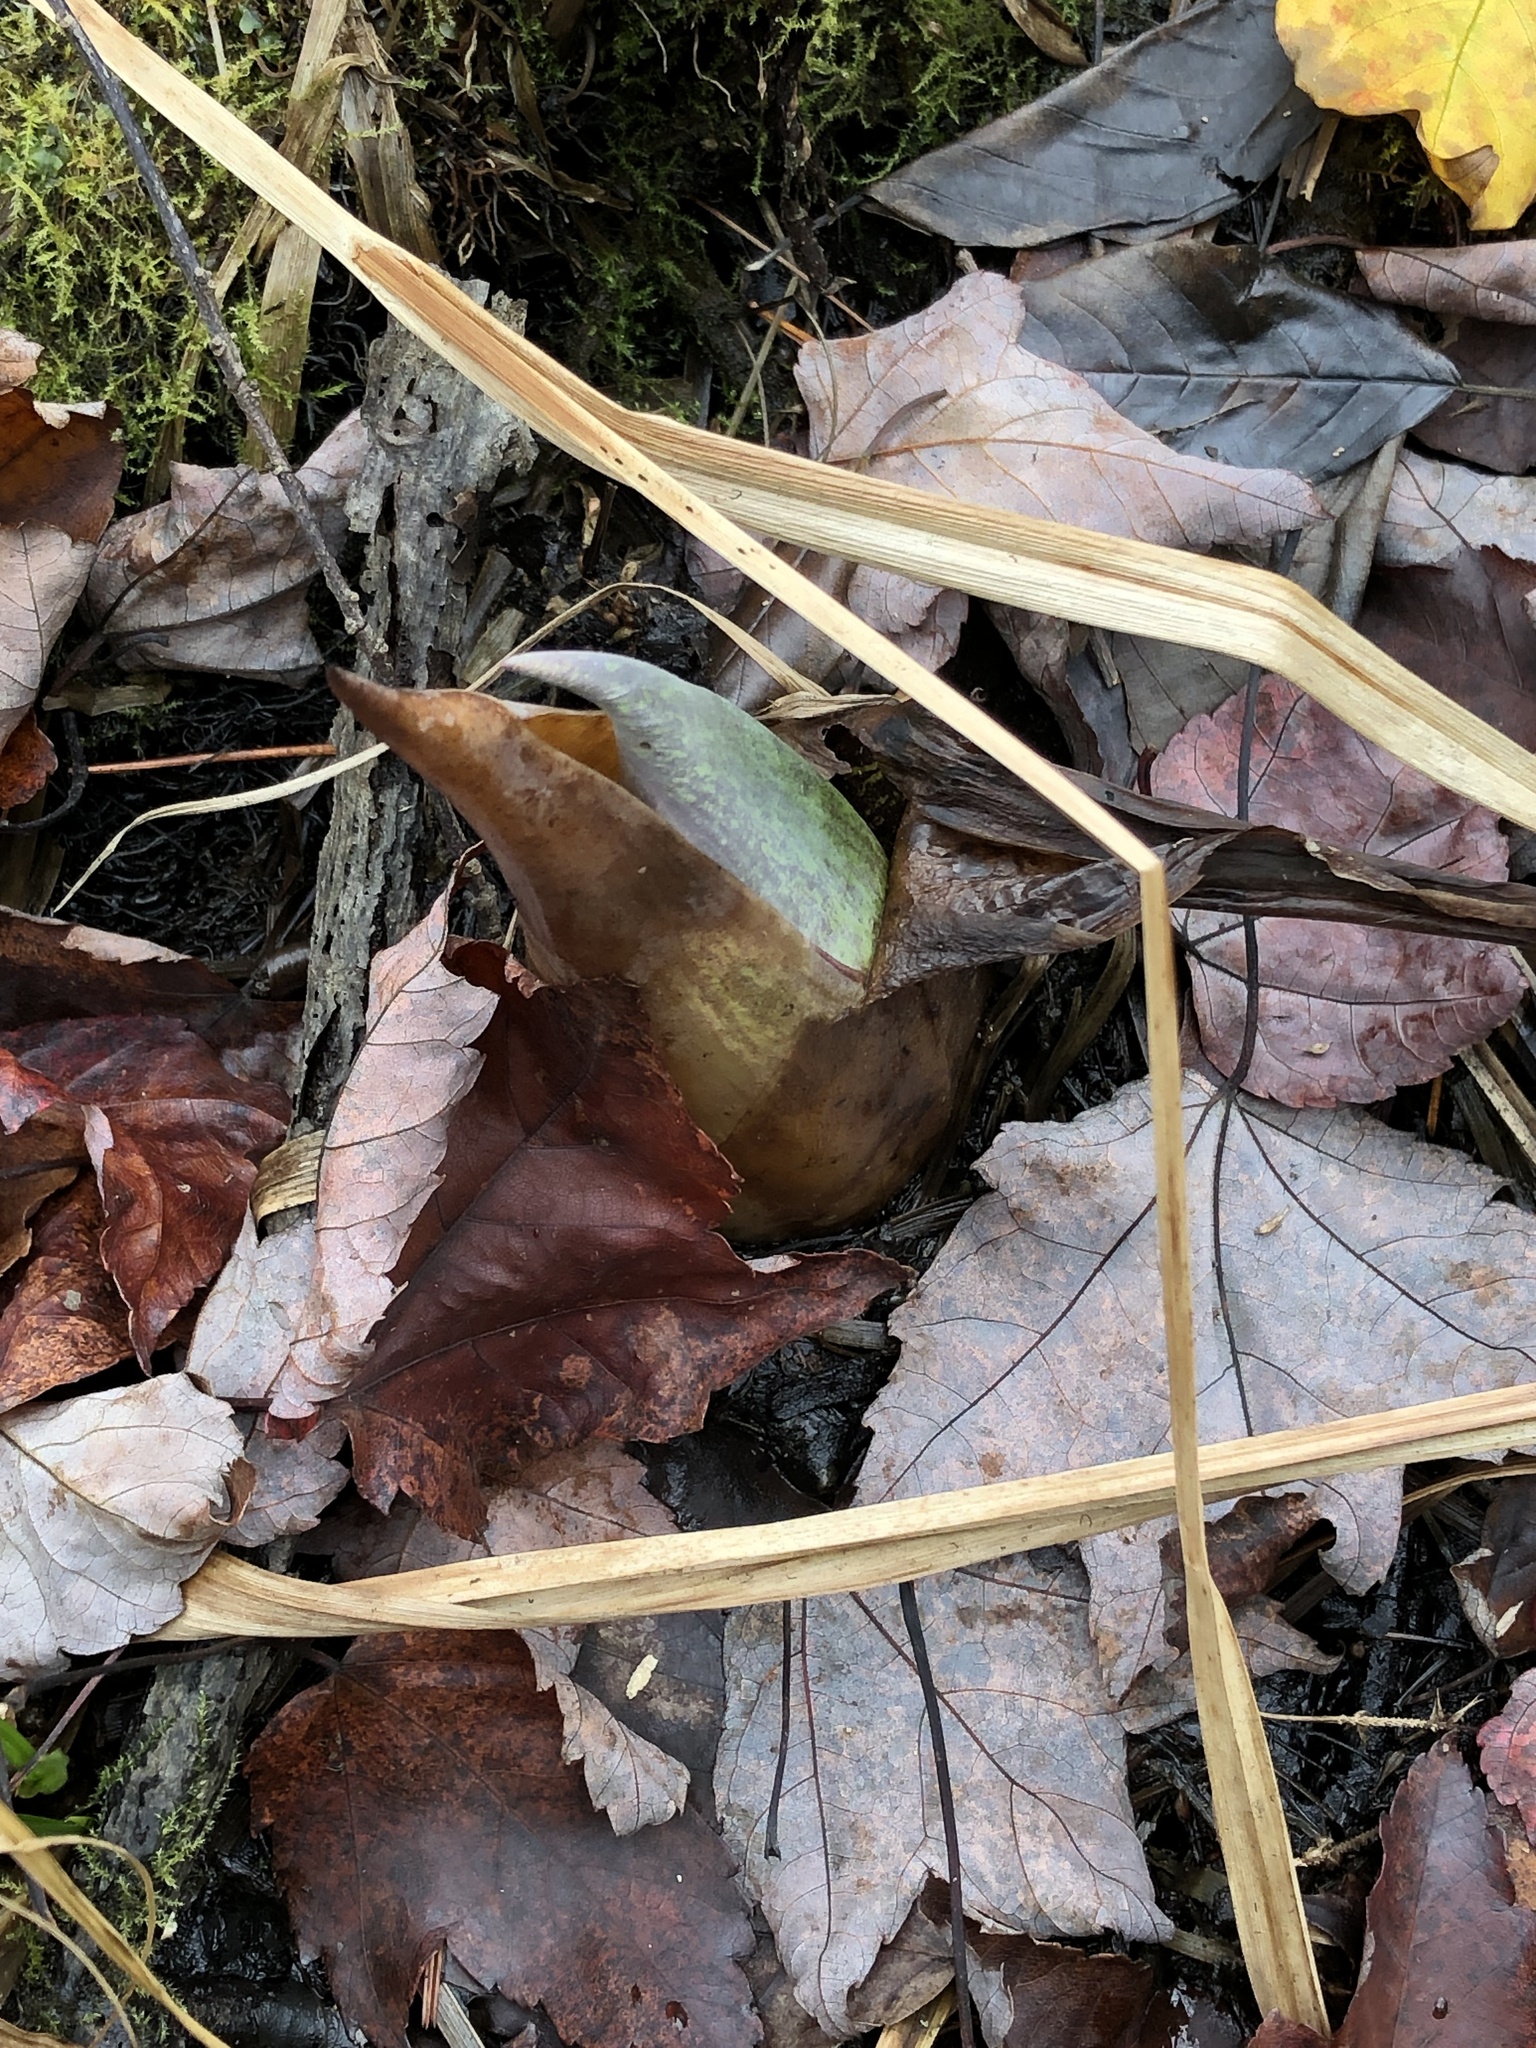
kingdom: Plantae
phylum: Tracheophyta
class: Liliopsida
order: Alismatales
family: Araceae
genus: Symplocarpus
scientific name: Symplocarpus foetidus
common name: Eastern skunk cabbage
